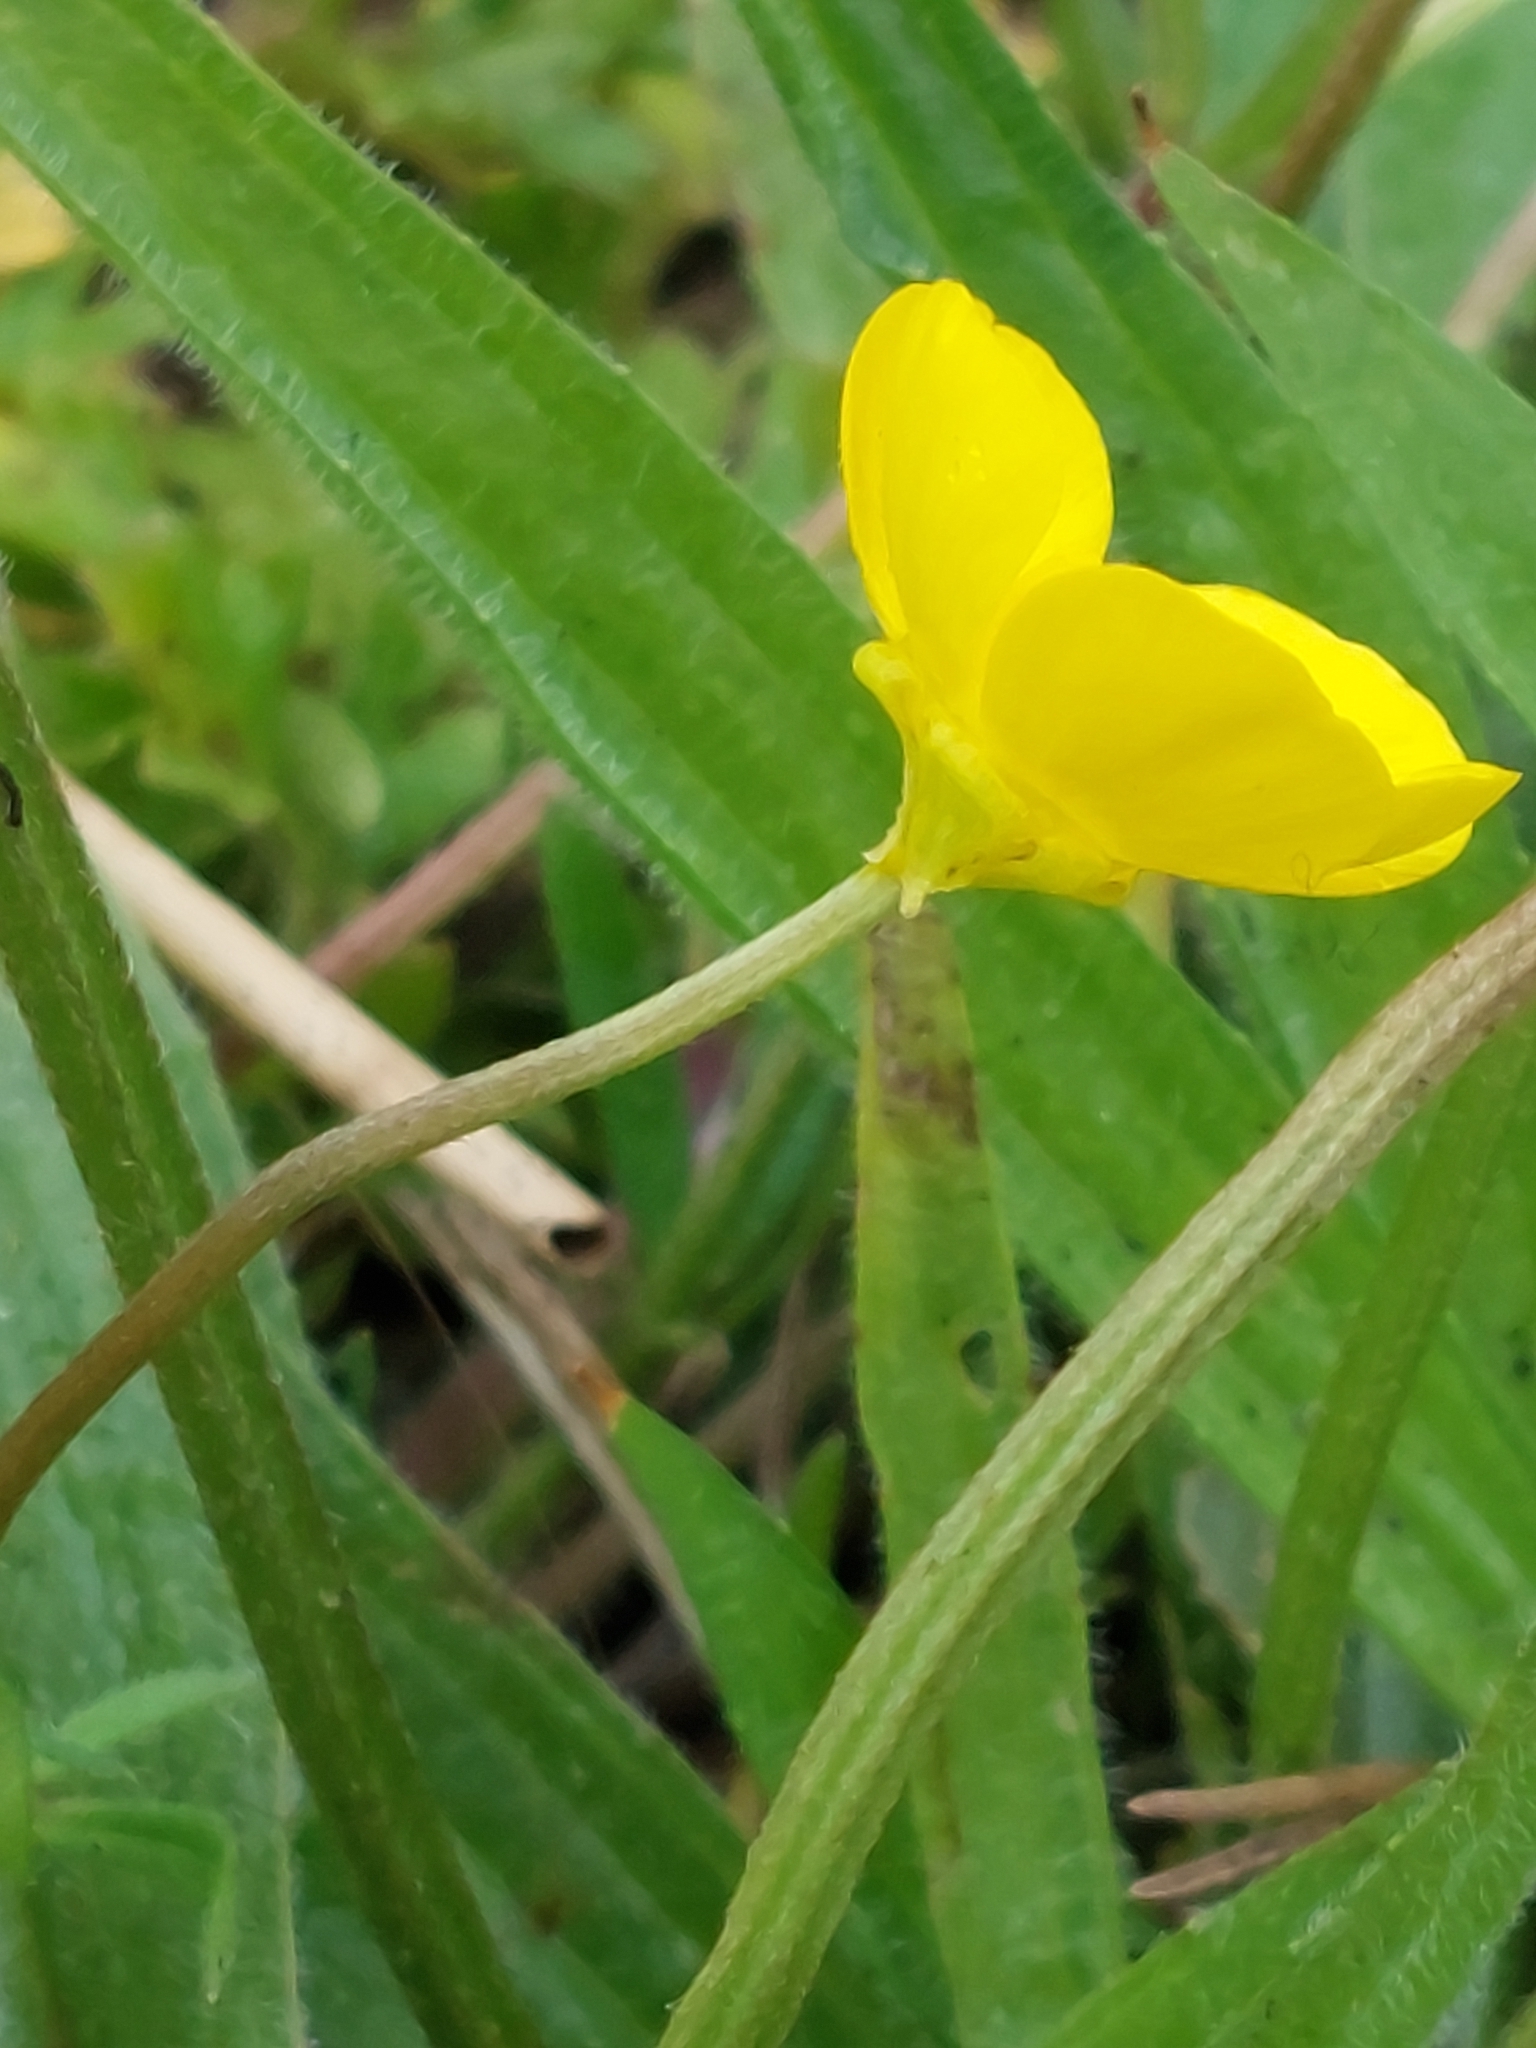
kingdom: Plantae
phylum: Tracheophyta
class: Magnoliopsida
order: Ranunculales
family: Ranunculaceae
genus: Ranunculus
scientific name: Ranunculus bulbosus
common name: Bulbous buttercup
